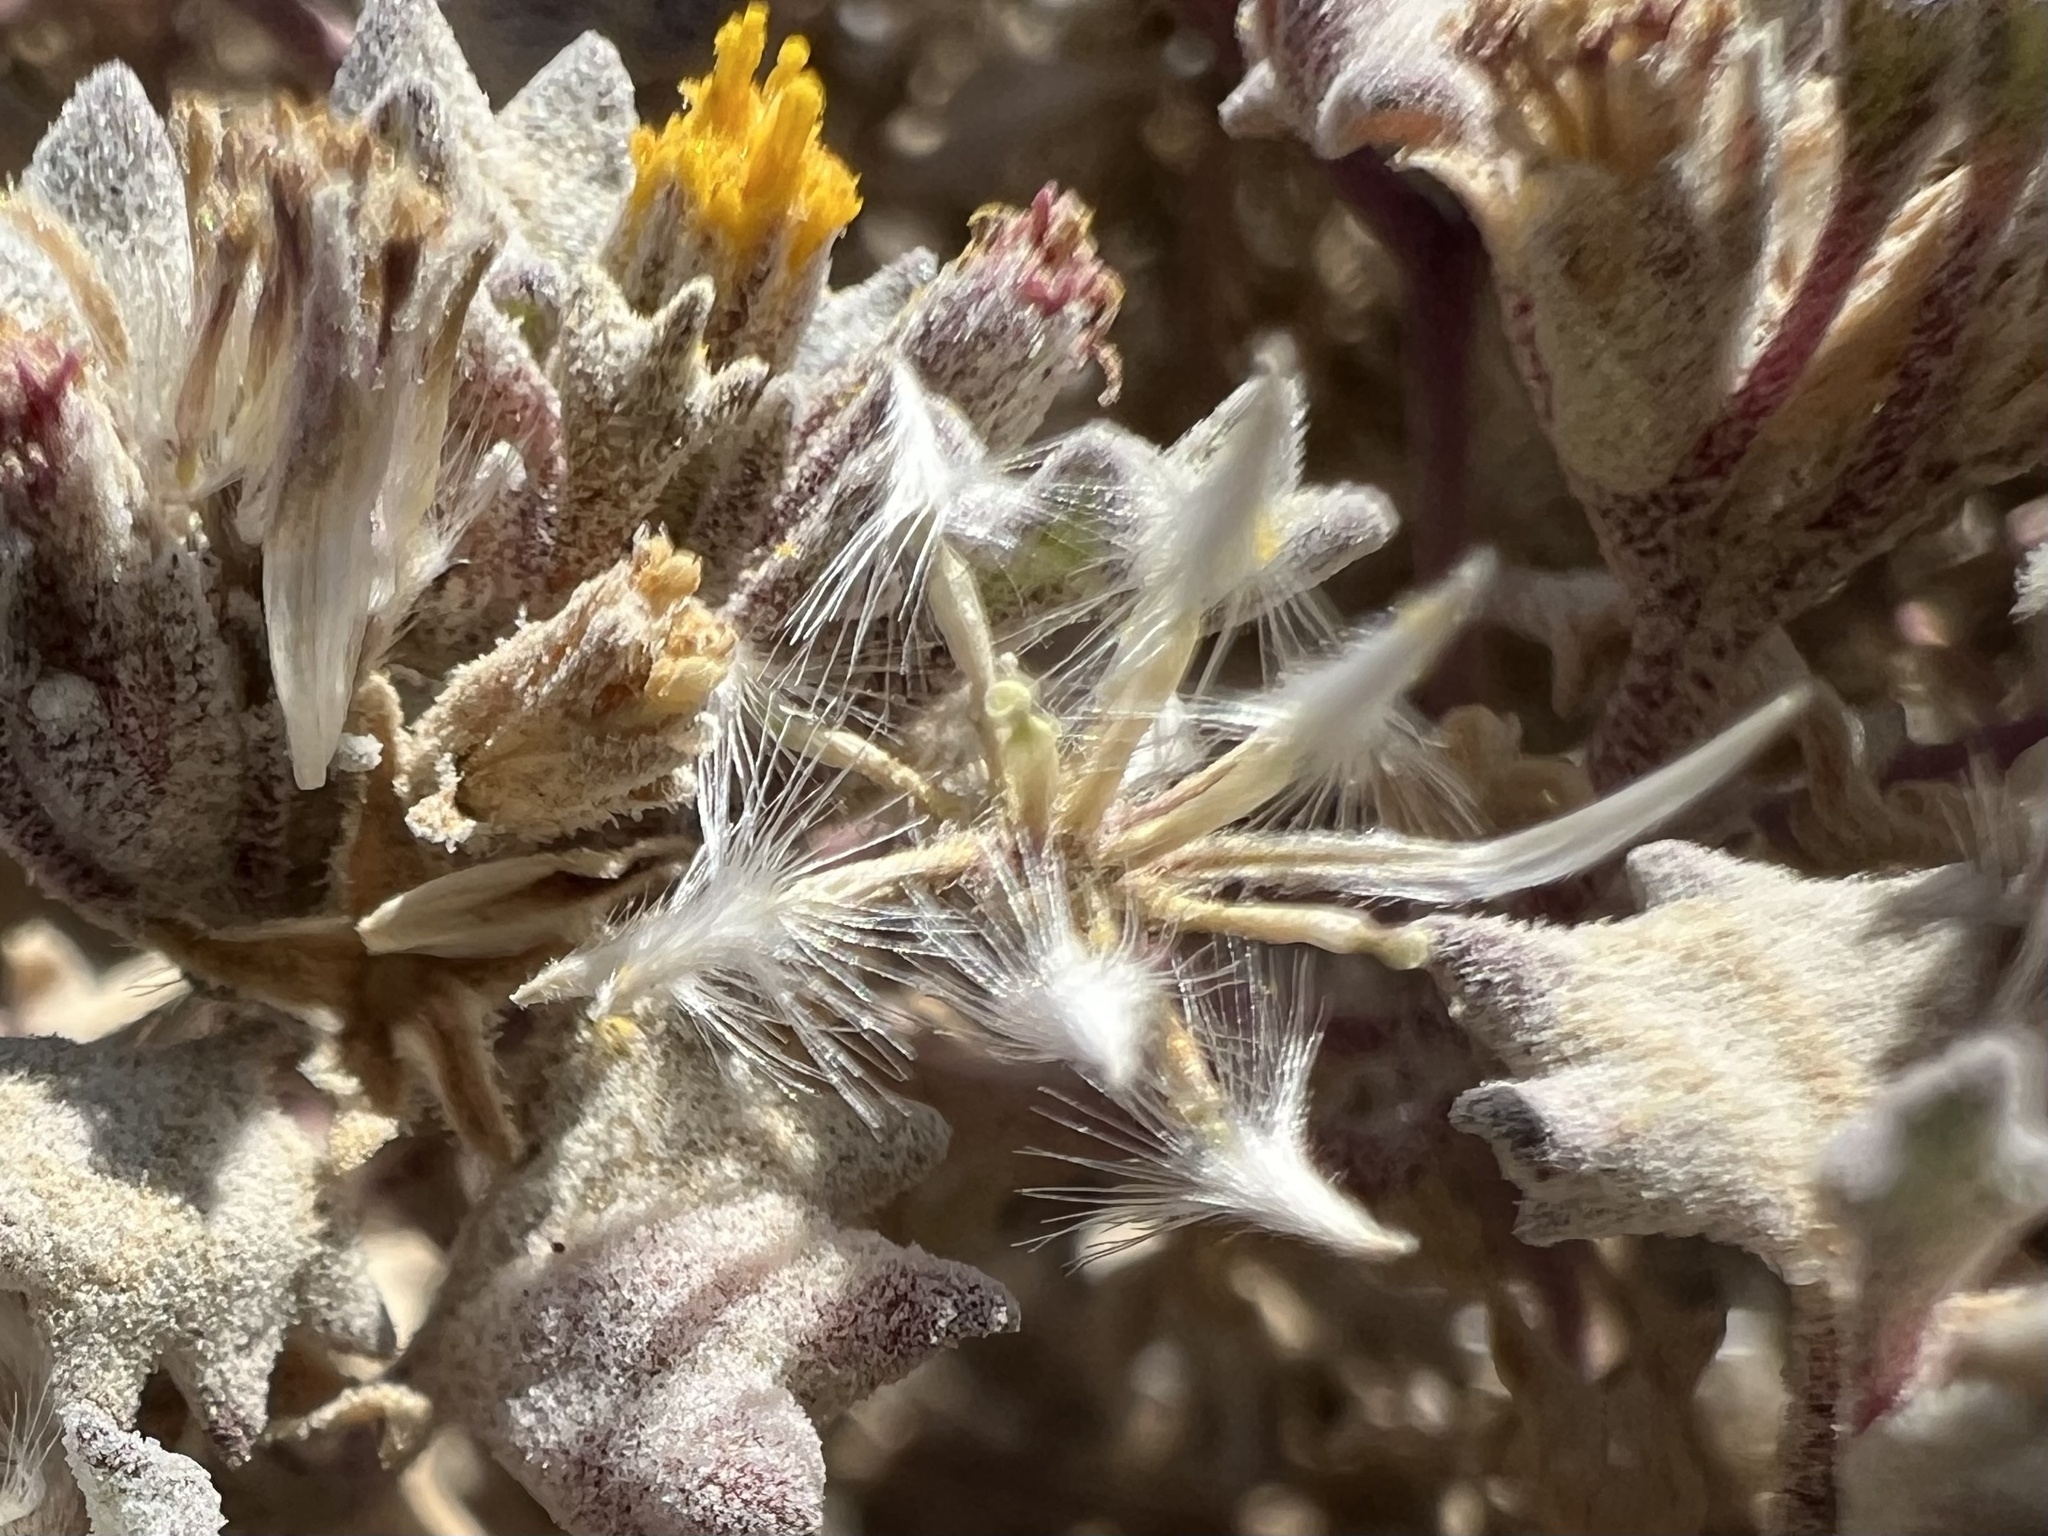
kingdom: Plantae
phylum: Tracheophyta
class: Magnoliopsida
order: Asterales
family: Asteraceae
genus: Psathyrotes
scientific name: Psathyrotes annua
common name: Mealy rosettes
